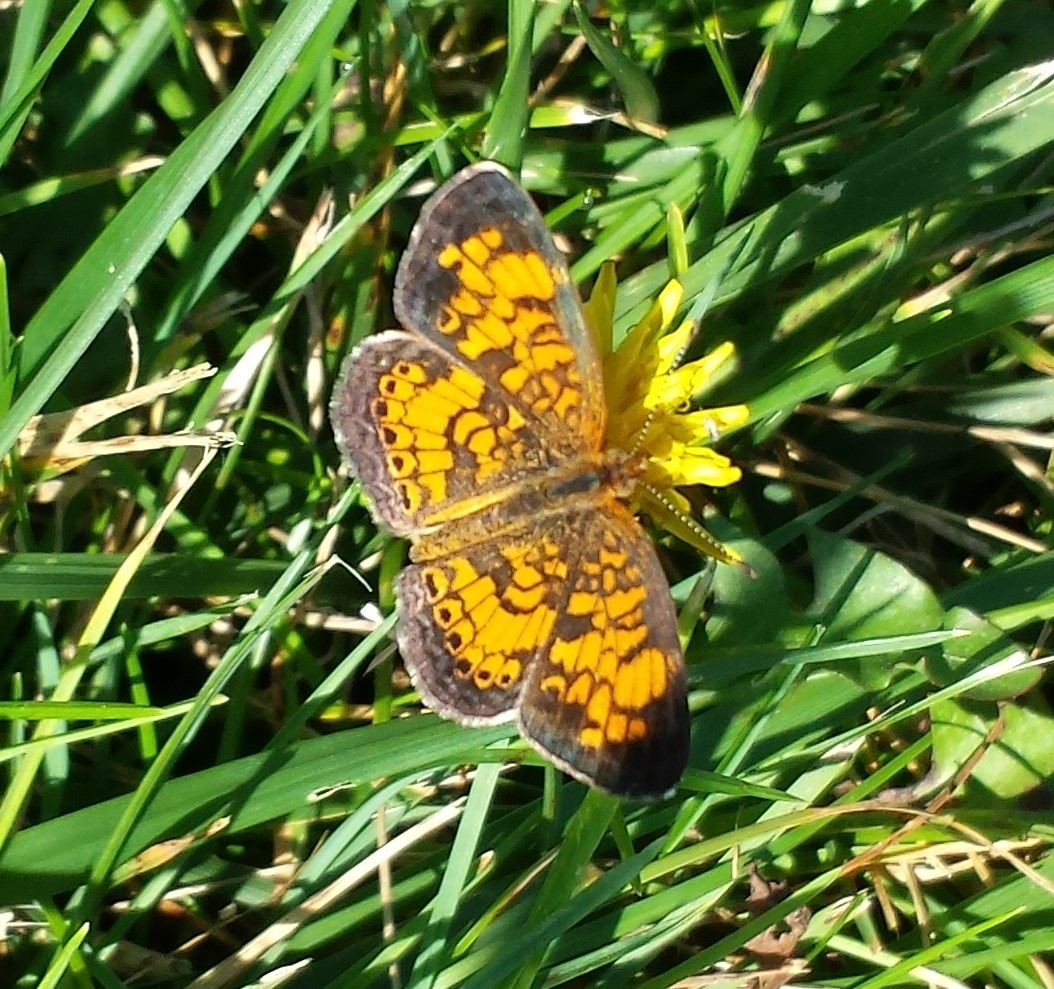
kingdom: Animalia
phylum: Arthropoda
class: Insecta
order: Lepidoptera
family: Nymphalidae
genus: Phyciodes
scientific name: Phyciodes tharos
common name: Pearl crescent
